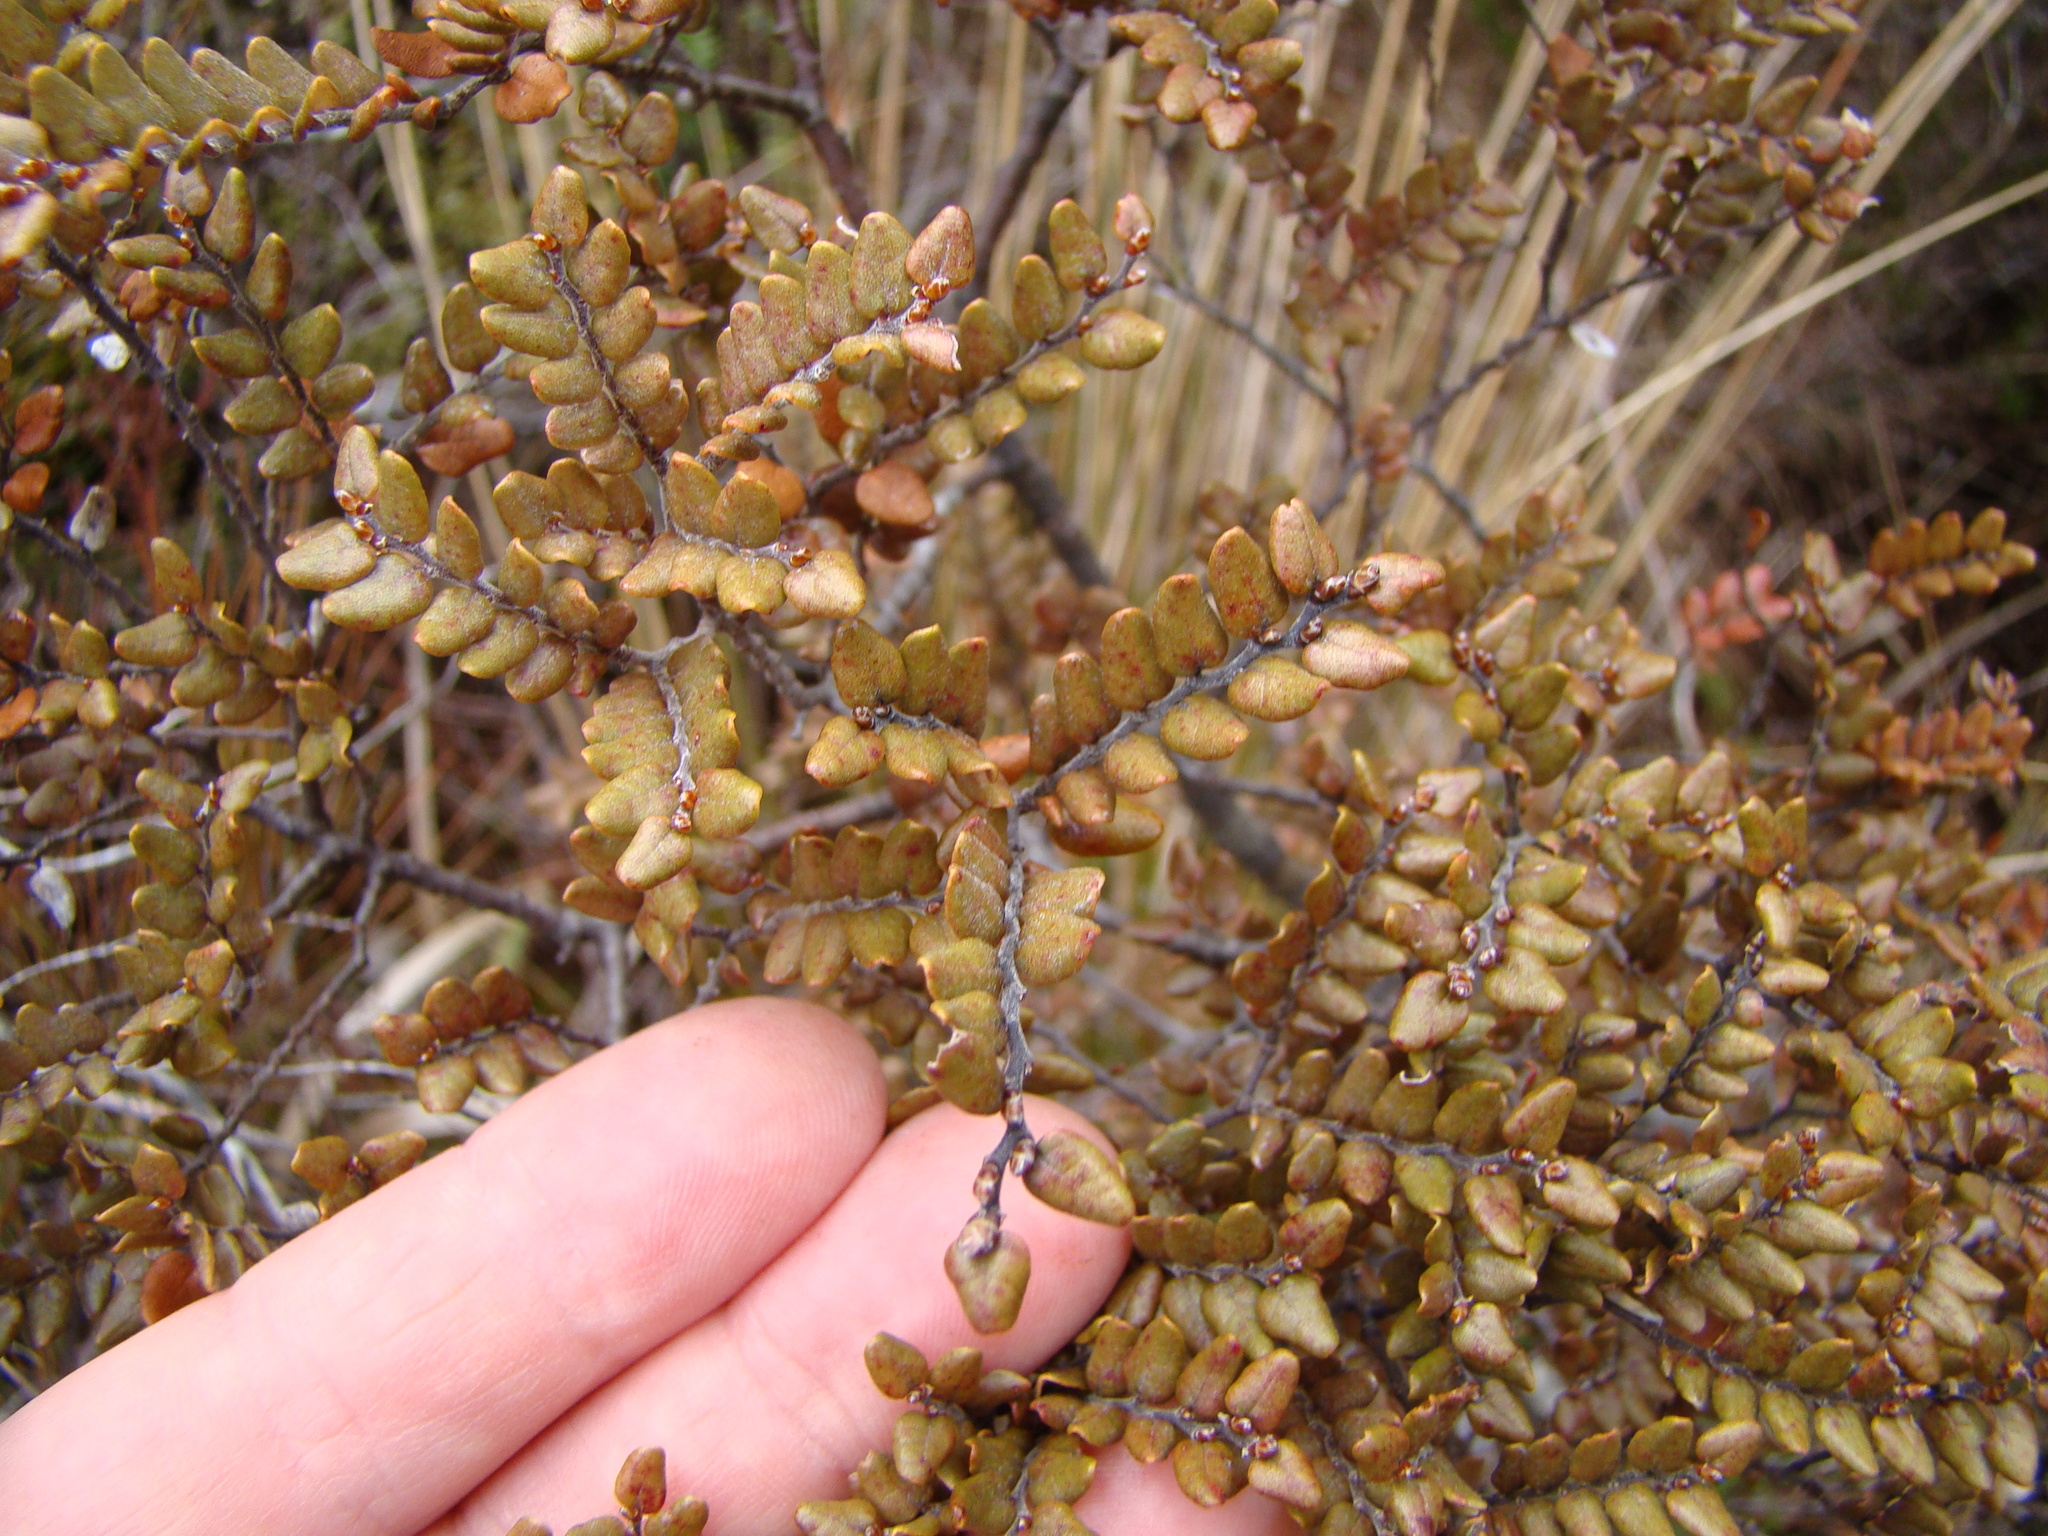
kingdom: Plantae
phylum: Tracheophyta
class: Magnoliopsida
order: Fagales
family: Nothofagaceae
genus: Nothofagus
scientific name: Nothofagus cliffortioides
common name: Mountain beech
